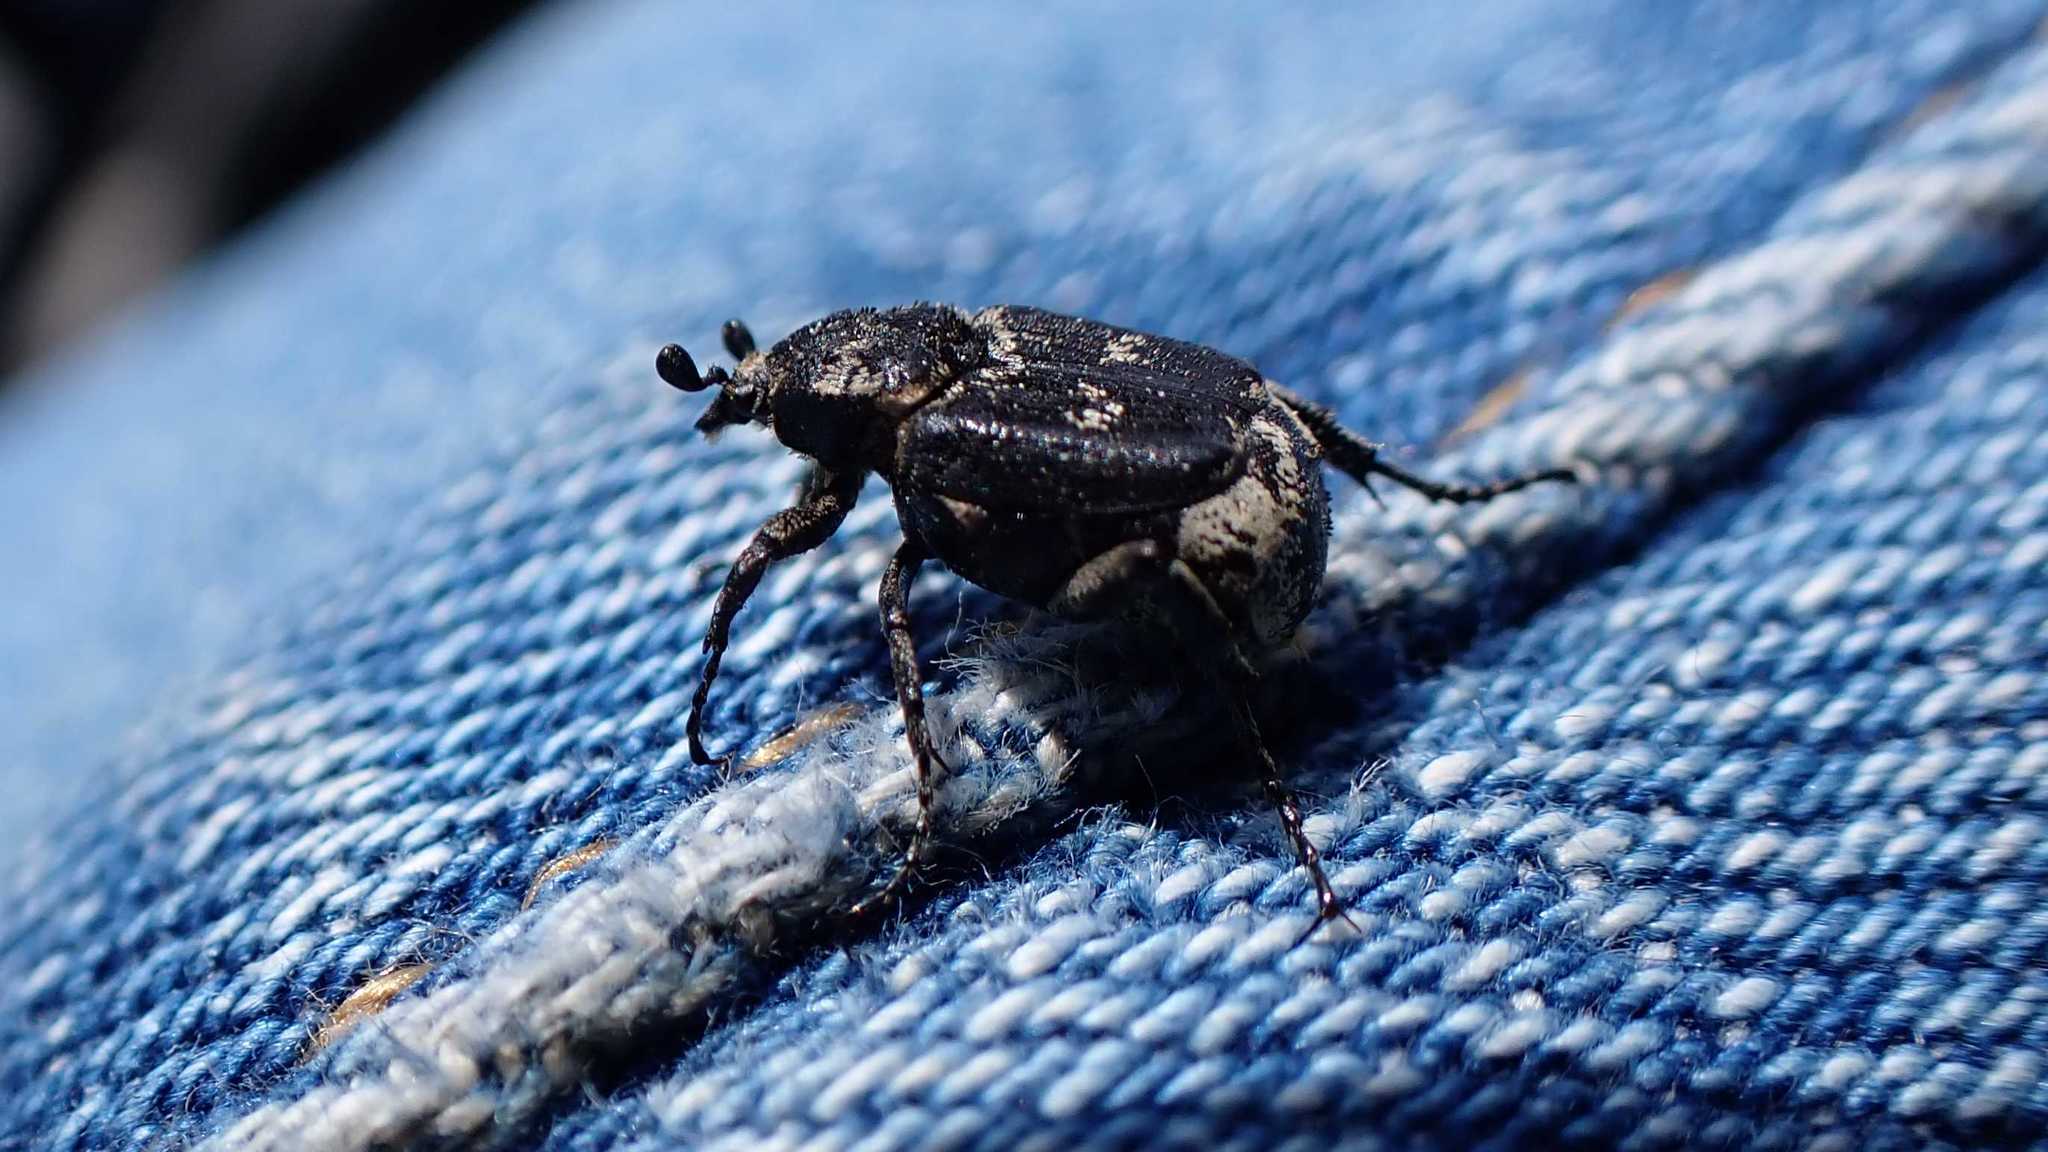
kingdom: Animalia
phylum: Arthropoda
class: Insecta
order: Coleoptera
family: Scarabaeidae
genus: Valgus
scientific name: Valgus hemipterus
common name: Bug flower chafer
